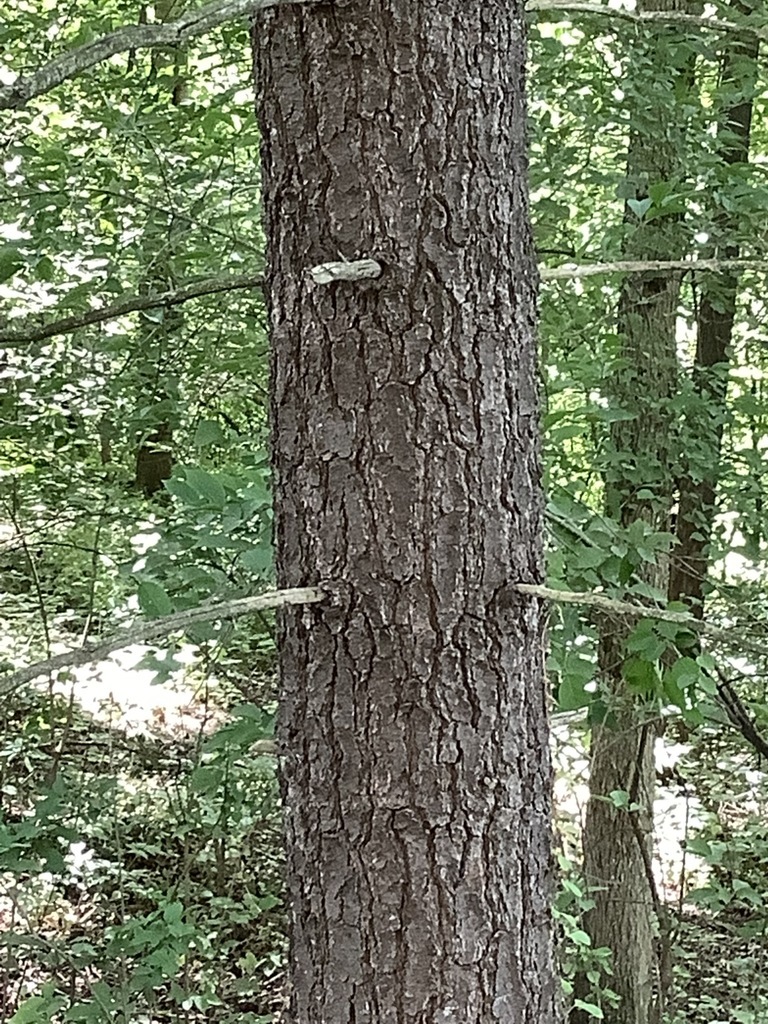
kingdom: Plantae
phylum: Tracheophyta
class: Pinopsida
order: Pinales
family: Pinaceae
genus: Pinus
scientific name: Pinus strobus
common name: Weymouth pine
